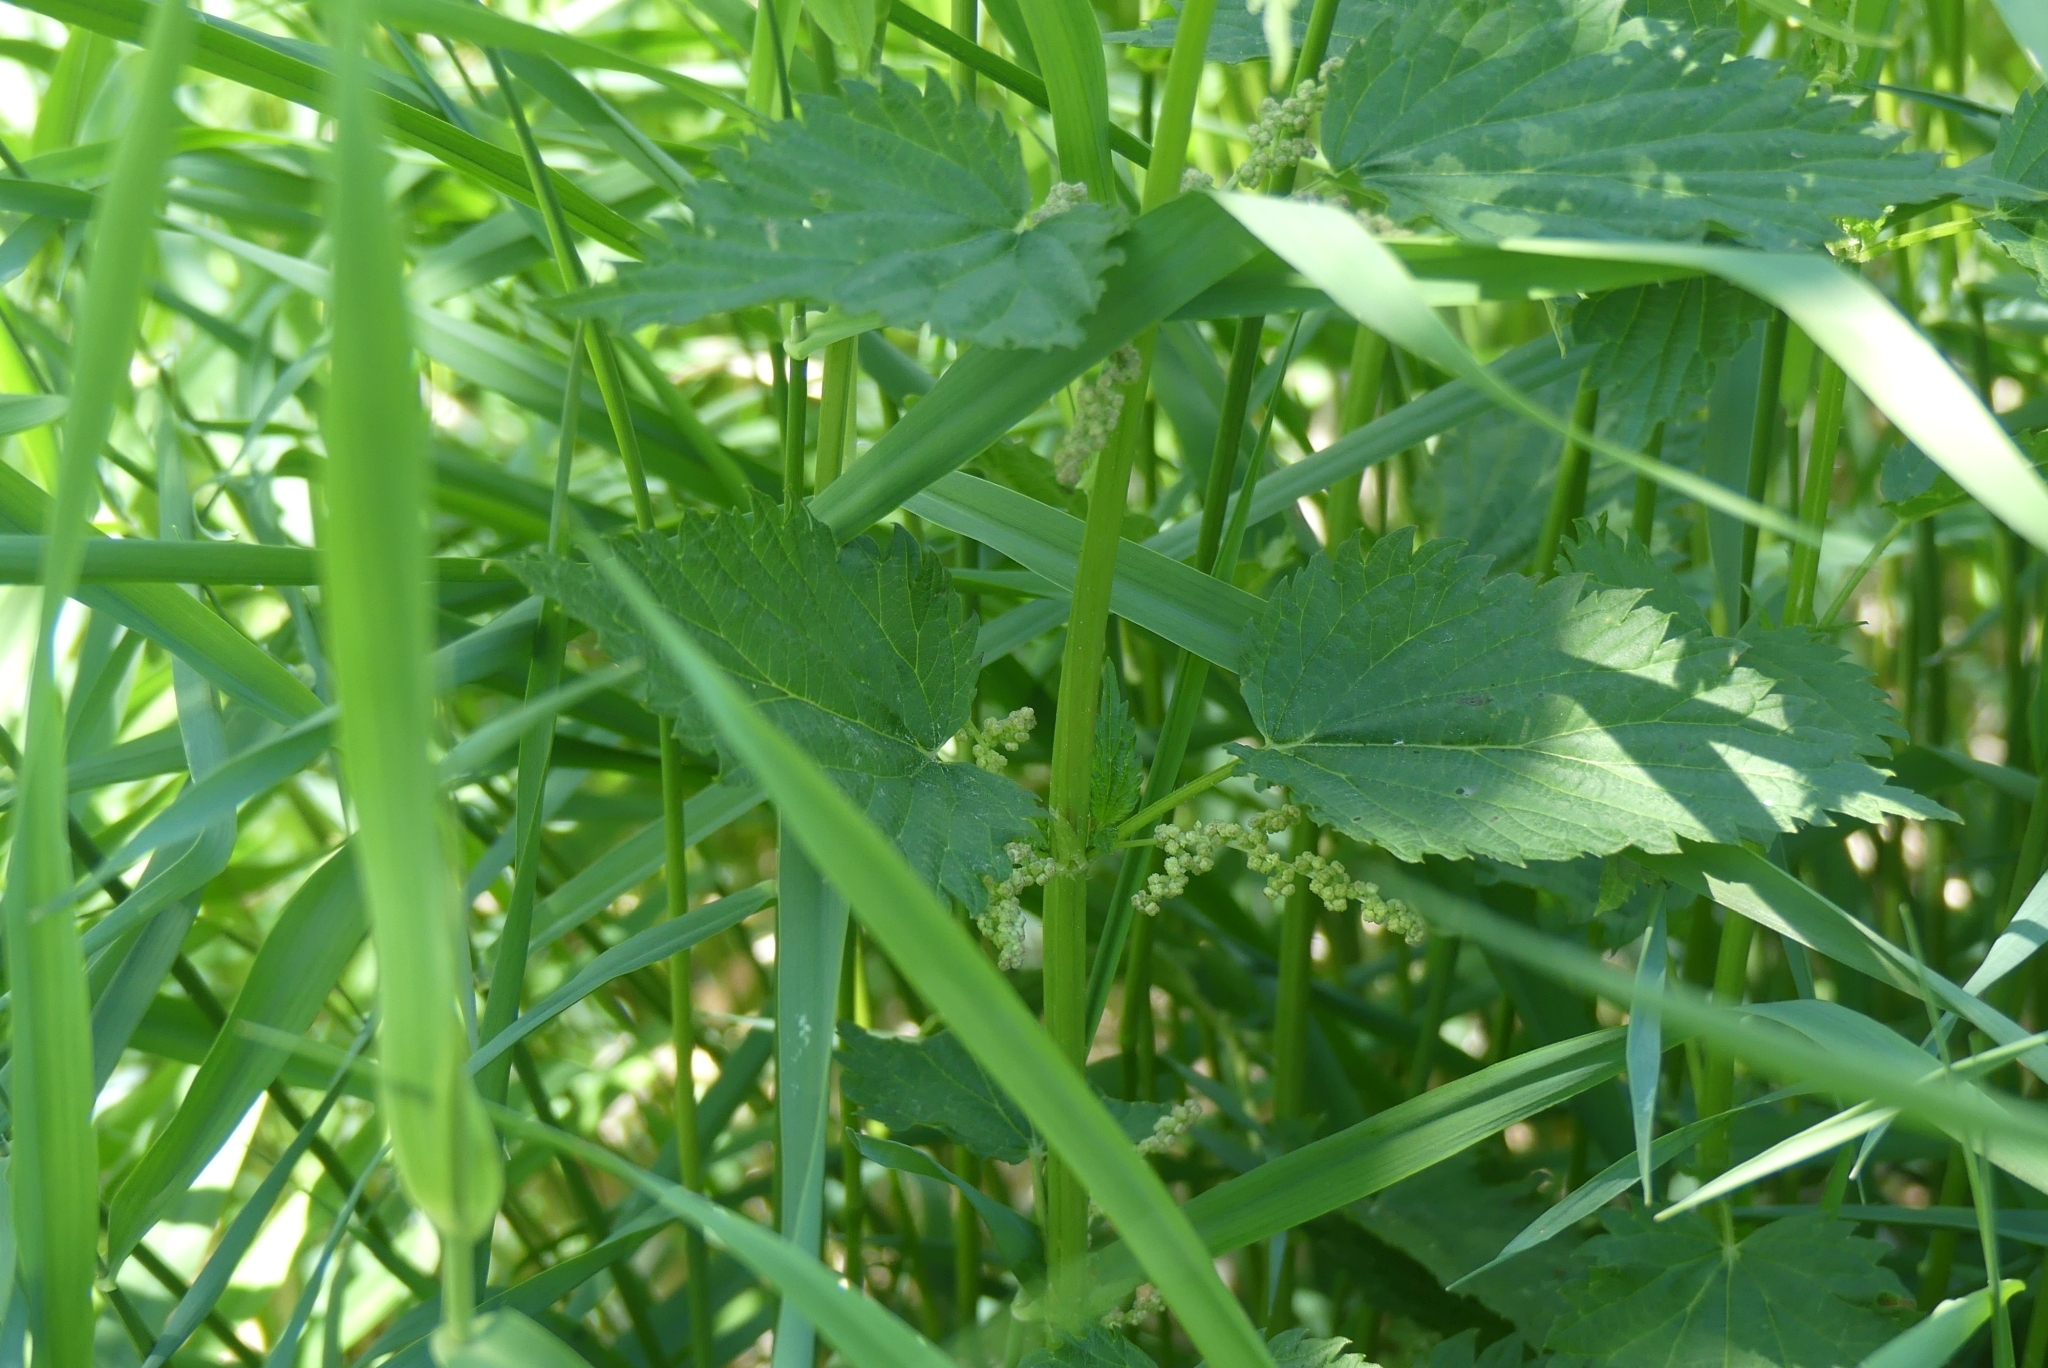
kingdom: Plantae
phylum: Tracheophyta
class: Magnoliopsida
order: Rosales
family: Urticaceae
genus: Urtica
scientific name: Urtica dioica
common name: Common nettle
